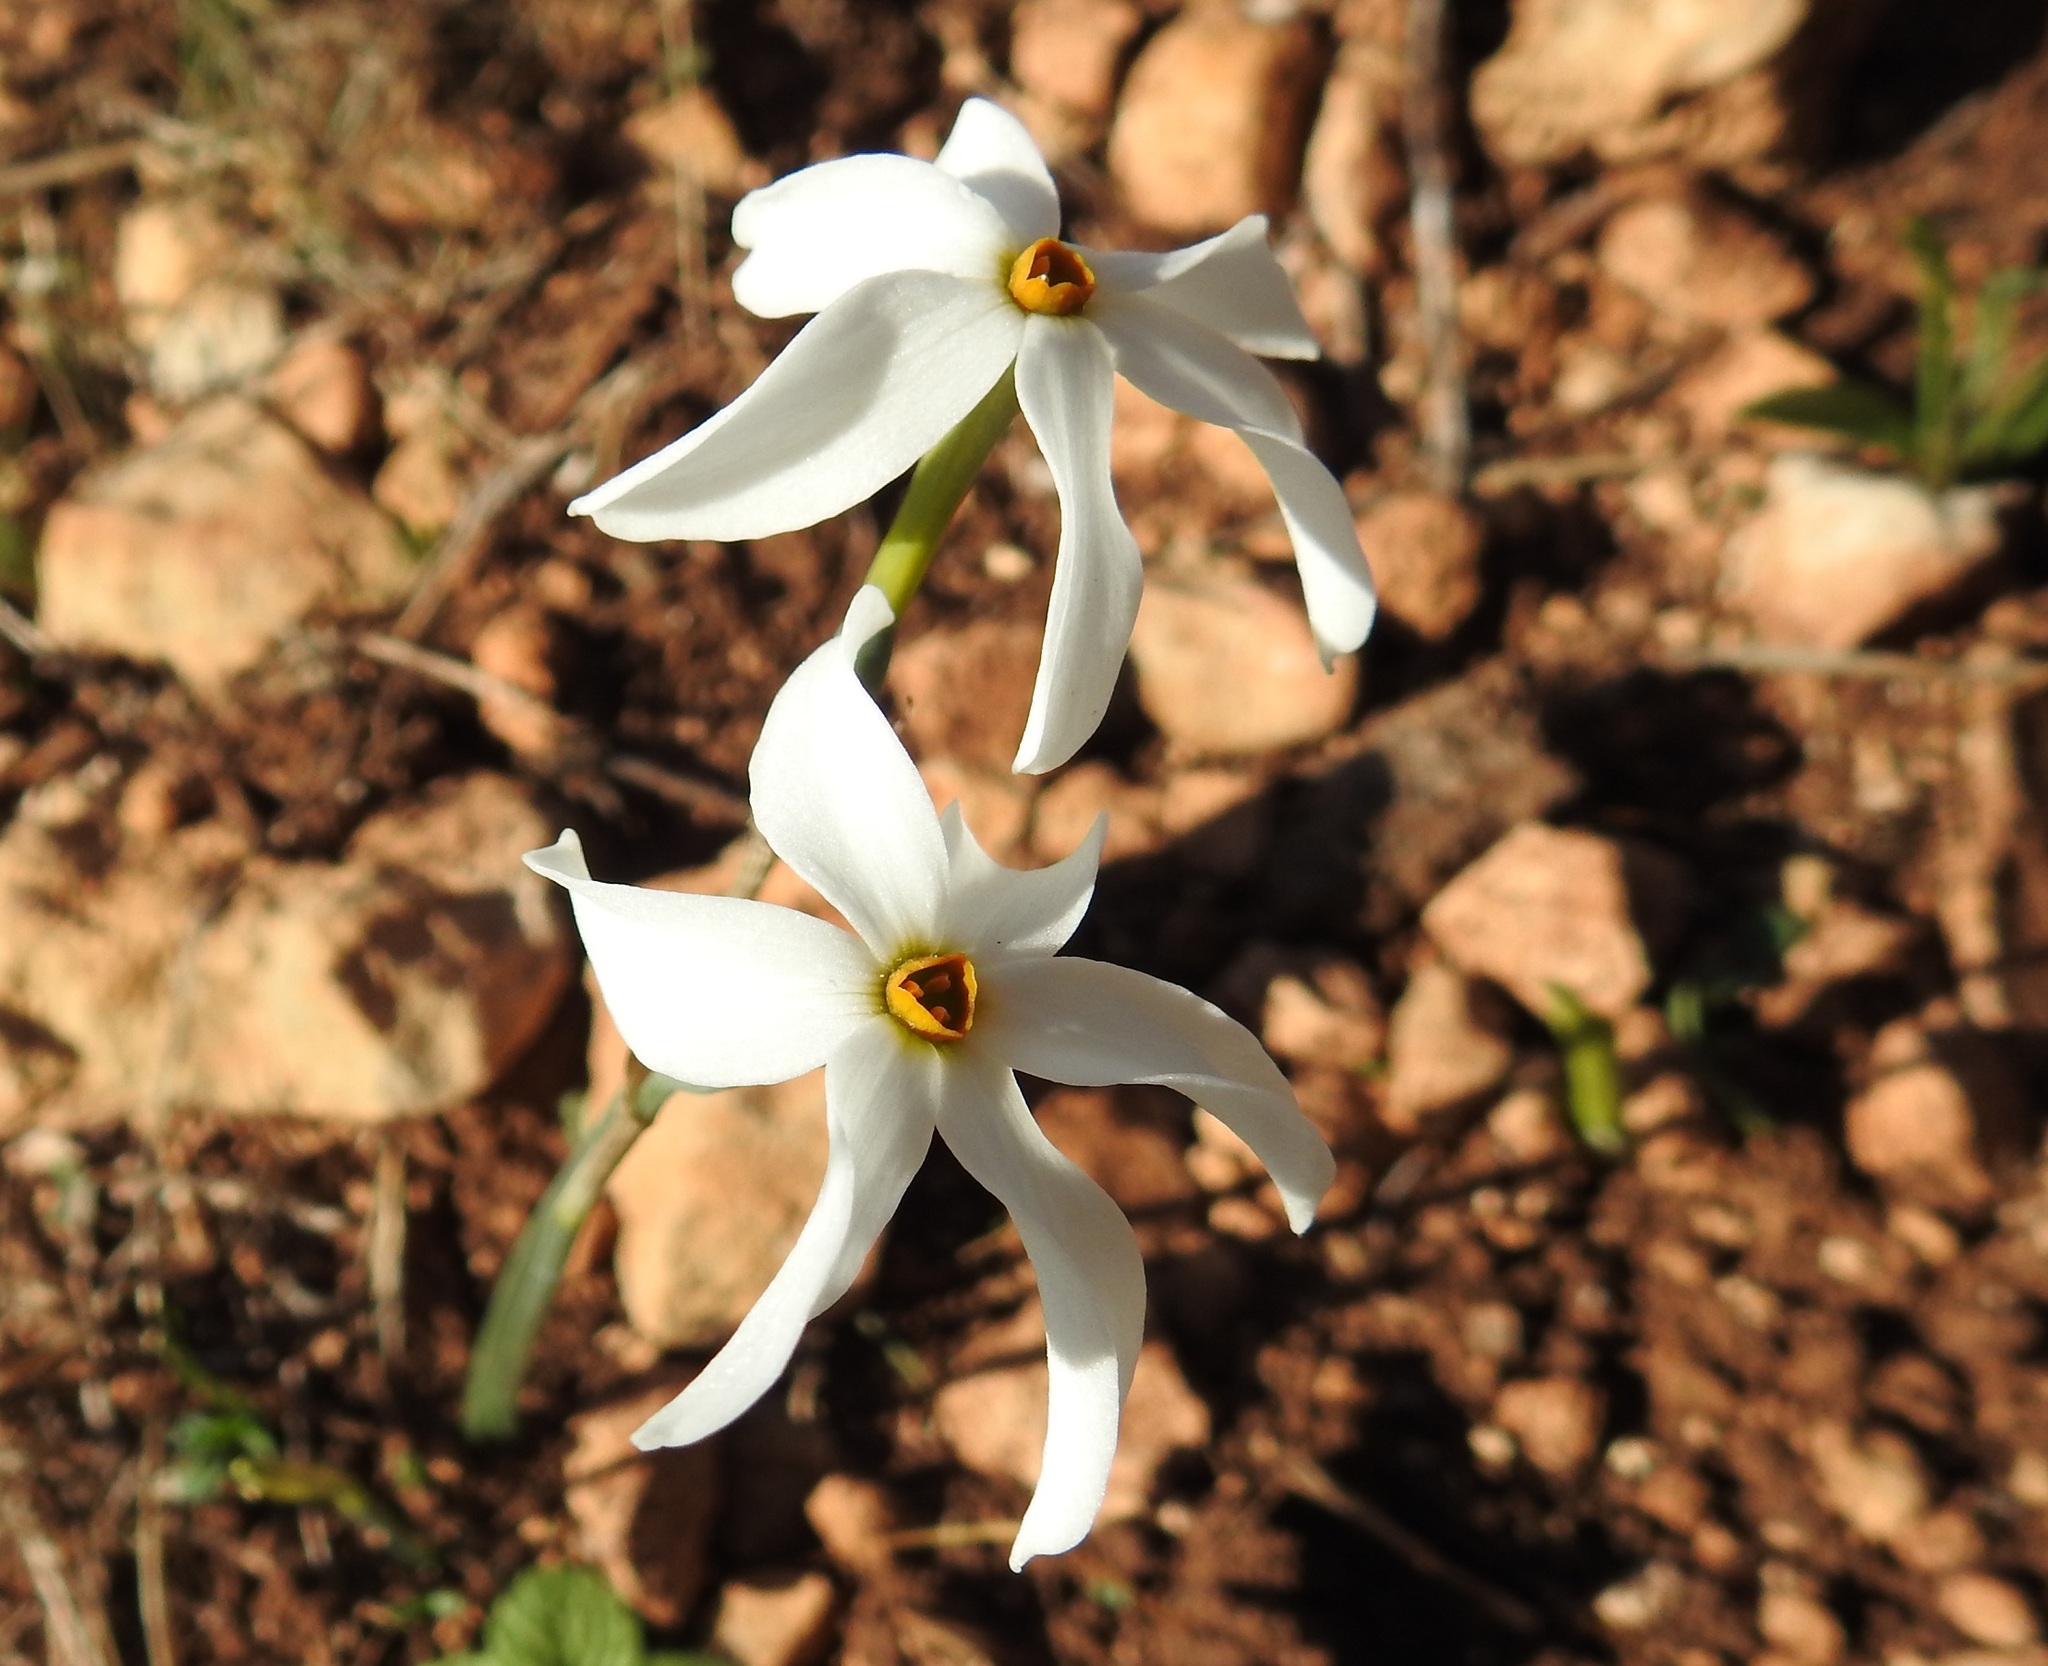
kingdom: Plantae
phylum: Tracheophyta
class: Liliopsida
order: Asparagales
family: Amaryllidaceae
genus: Narcissus
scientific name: Narcissus deficiens
